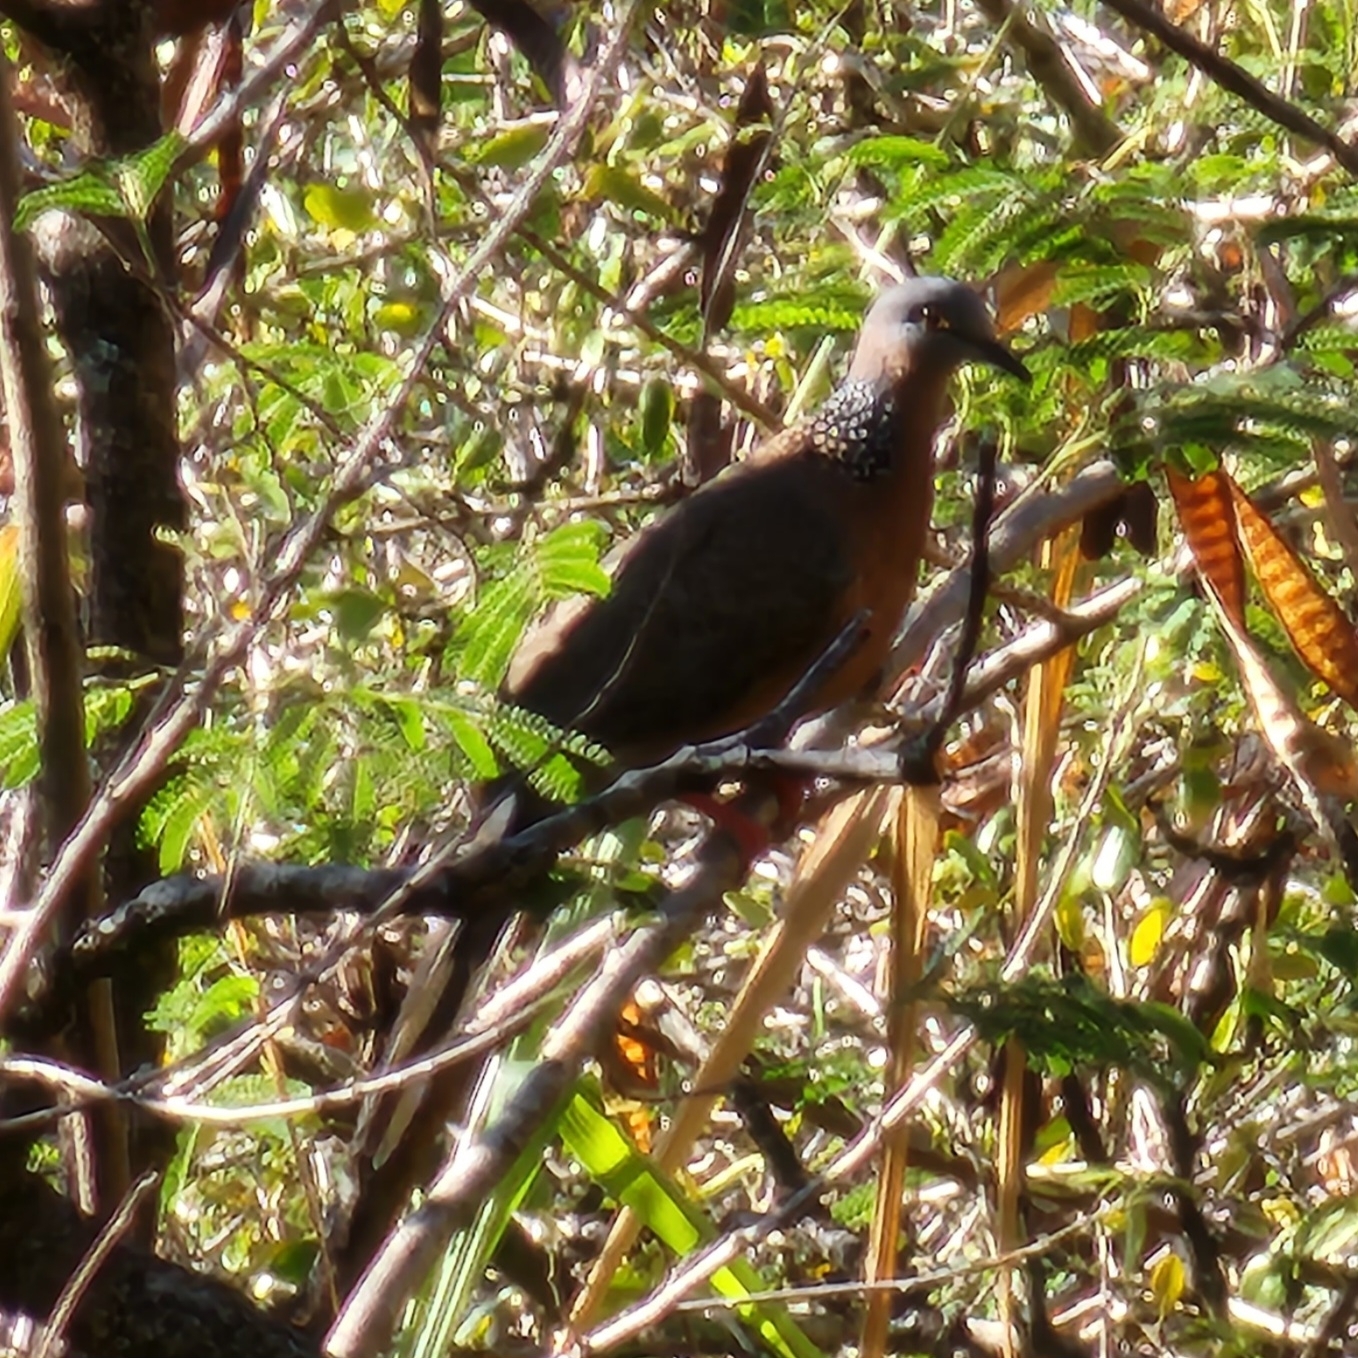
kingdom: Animalia
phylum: Chordata
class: Aves
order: Columbiformes
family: Columbidae
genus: Spilopelia
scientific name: Spilopelia chinensis
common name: Spotted dove
